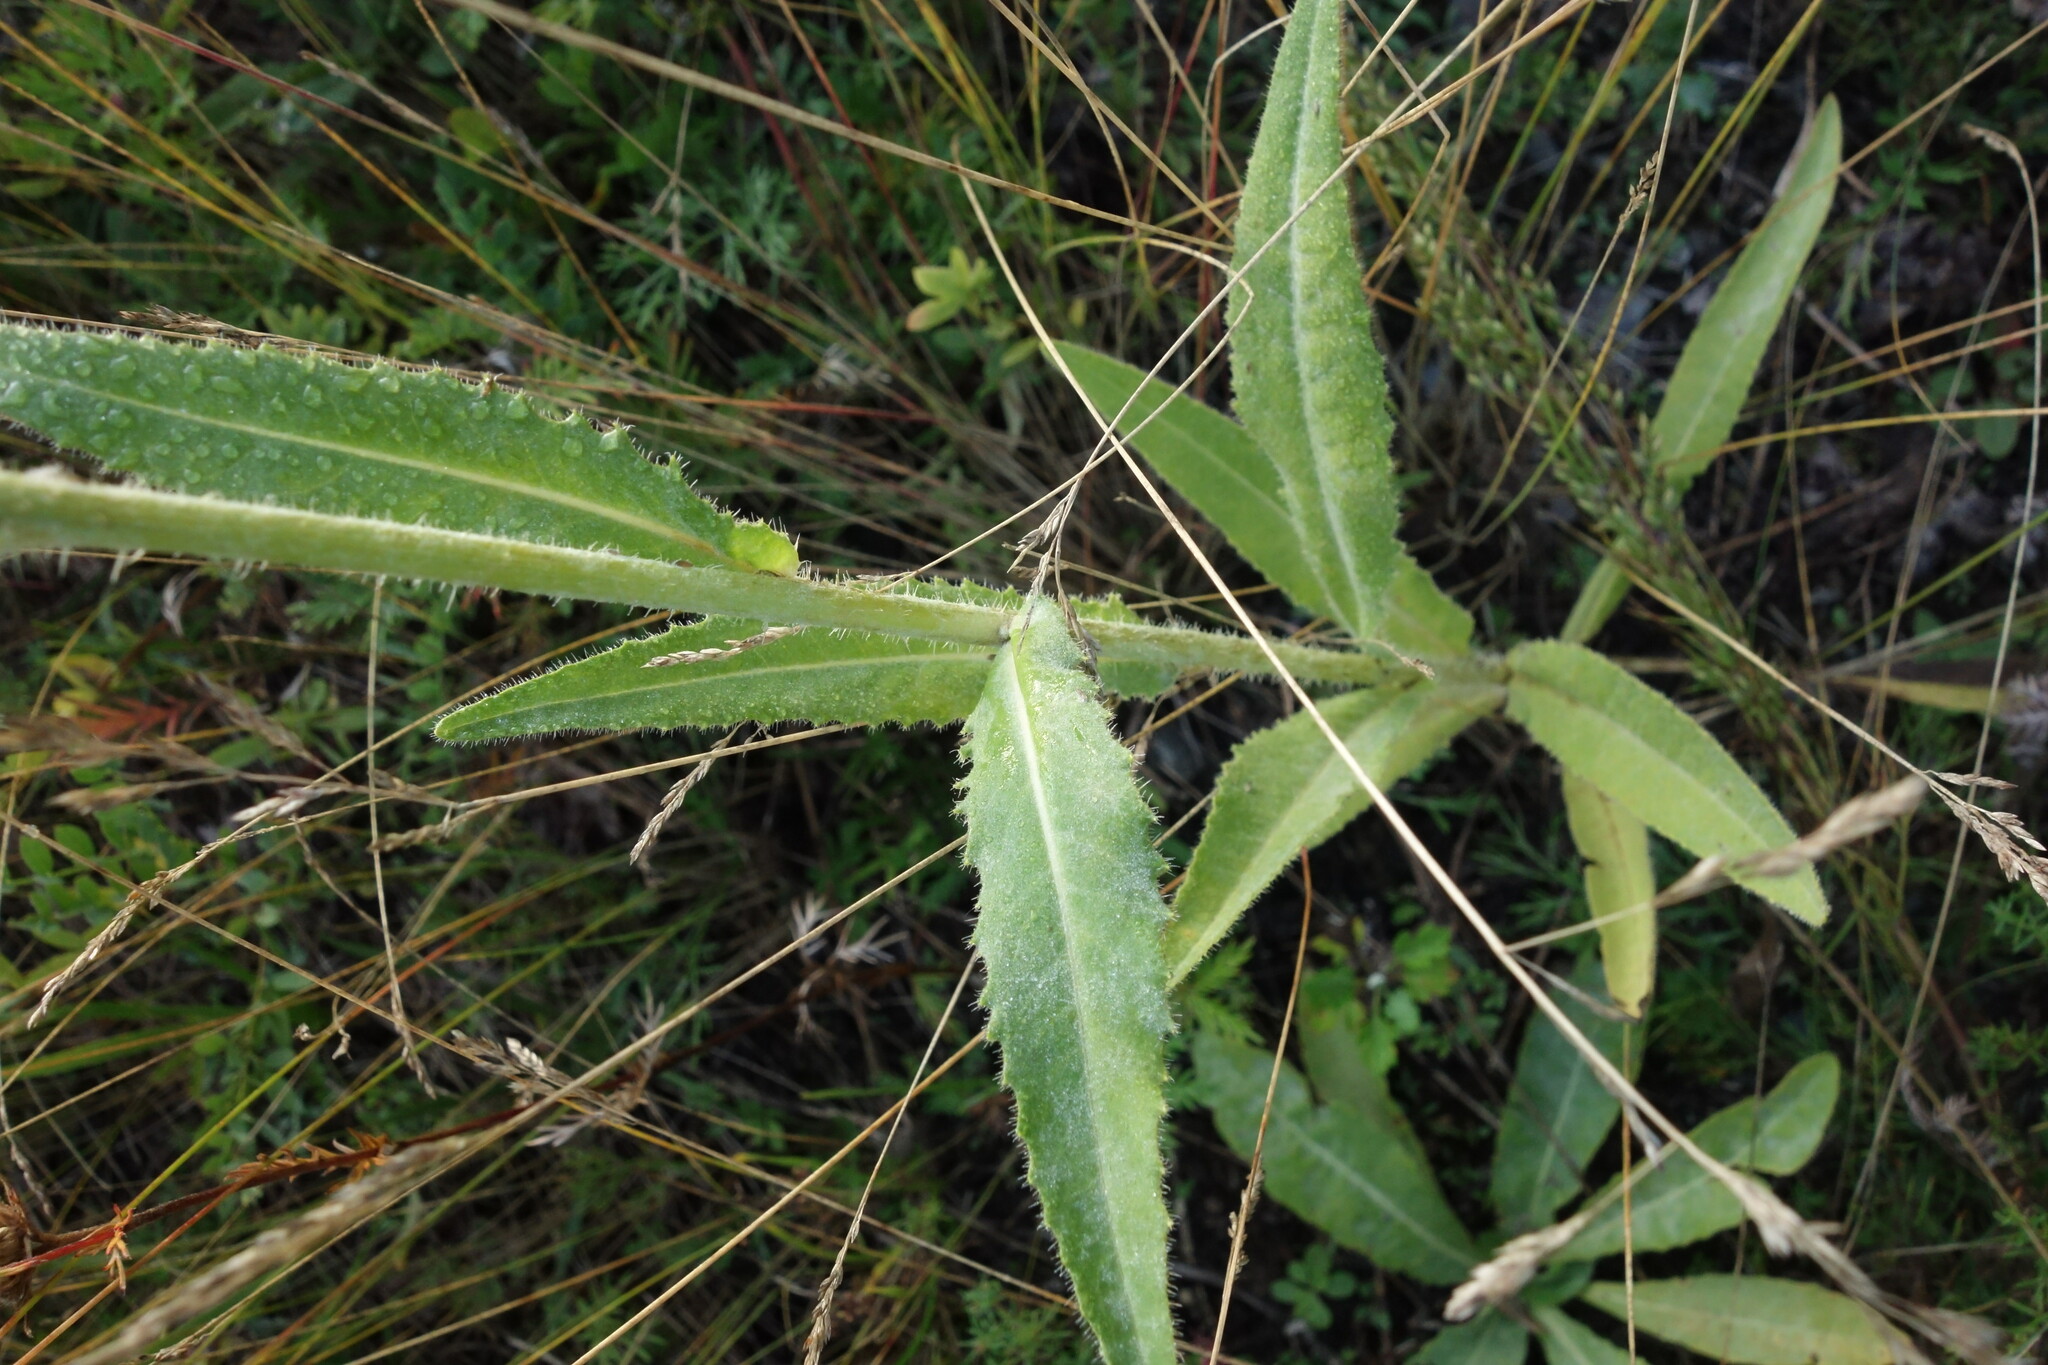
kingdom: Plantae
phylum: Tracheophyta
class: Magnoliopsida
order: Asterales
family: Asteraceae
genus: Picris
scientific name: Picris davurica
